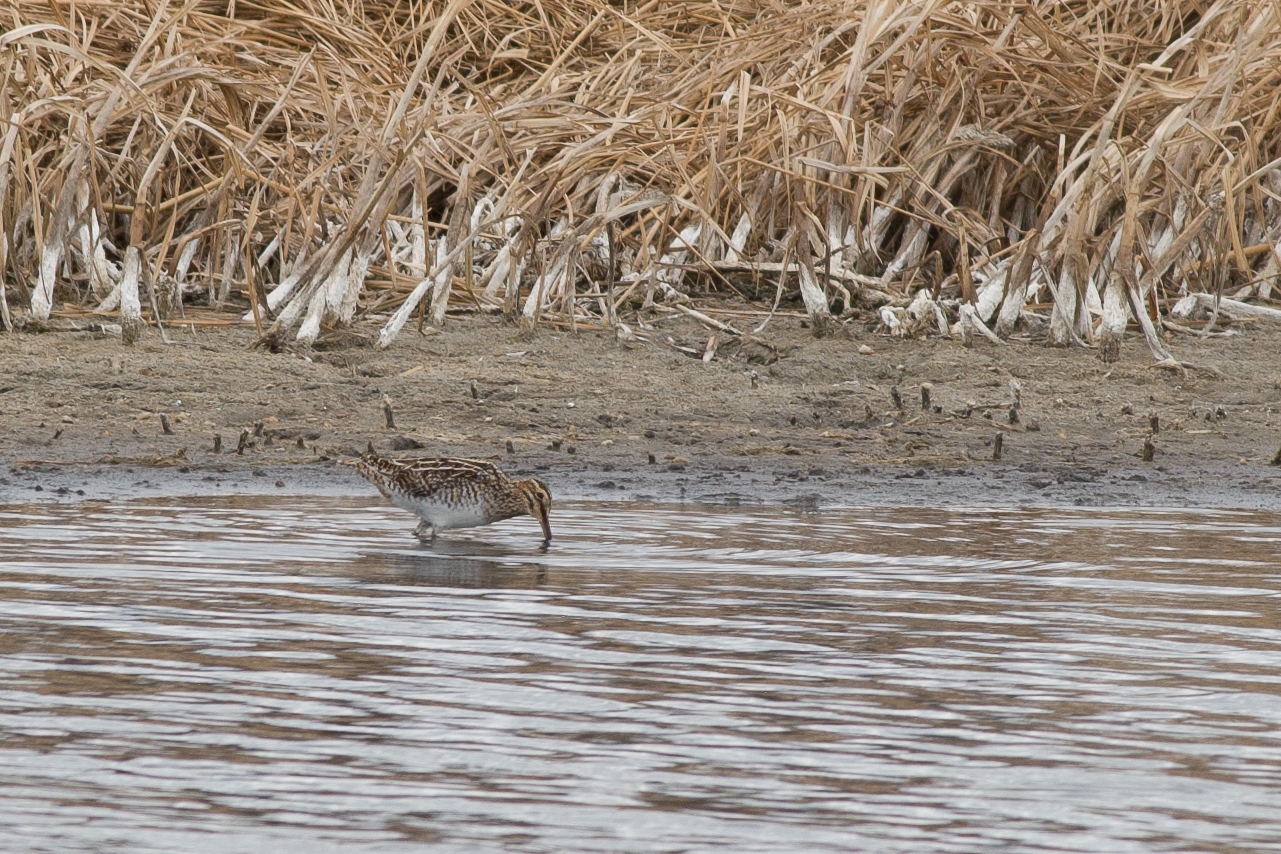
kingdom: Animalia
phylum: Chordata
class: Aves
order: Charadriiformes
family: Scolopacidae
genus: Gallinago
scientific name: Gallinago delicata
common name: Wilson's snipe
